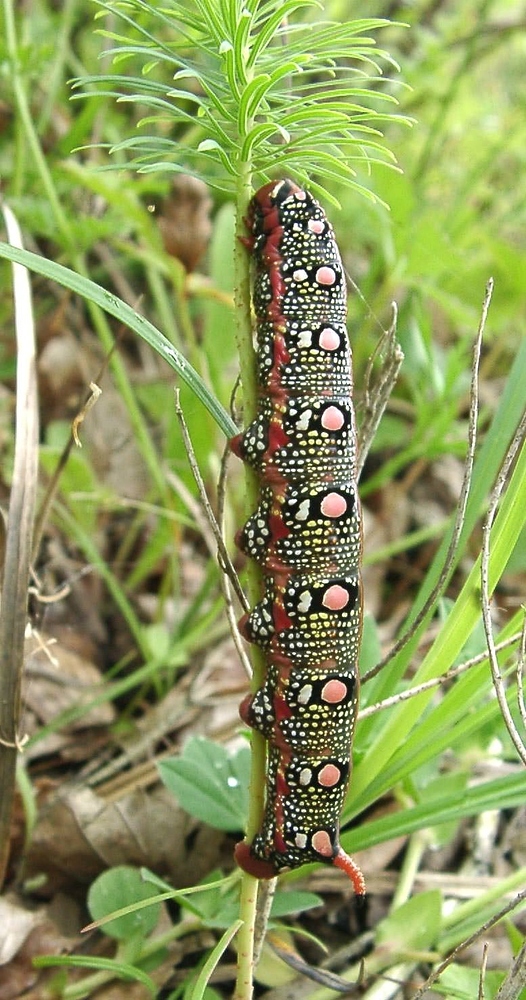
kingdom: Animalia
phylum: Arthropoda
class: Insecta
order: Lepidoptera
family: Sphingidae
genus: Hyles
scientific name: Hyles euphorbiae
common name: Spurge hawk-moth
